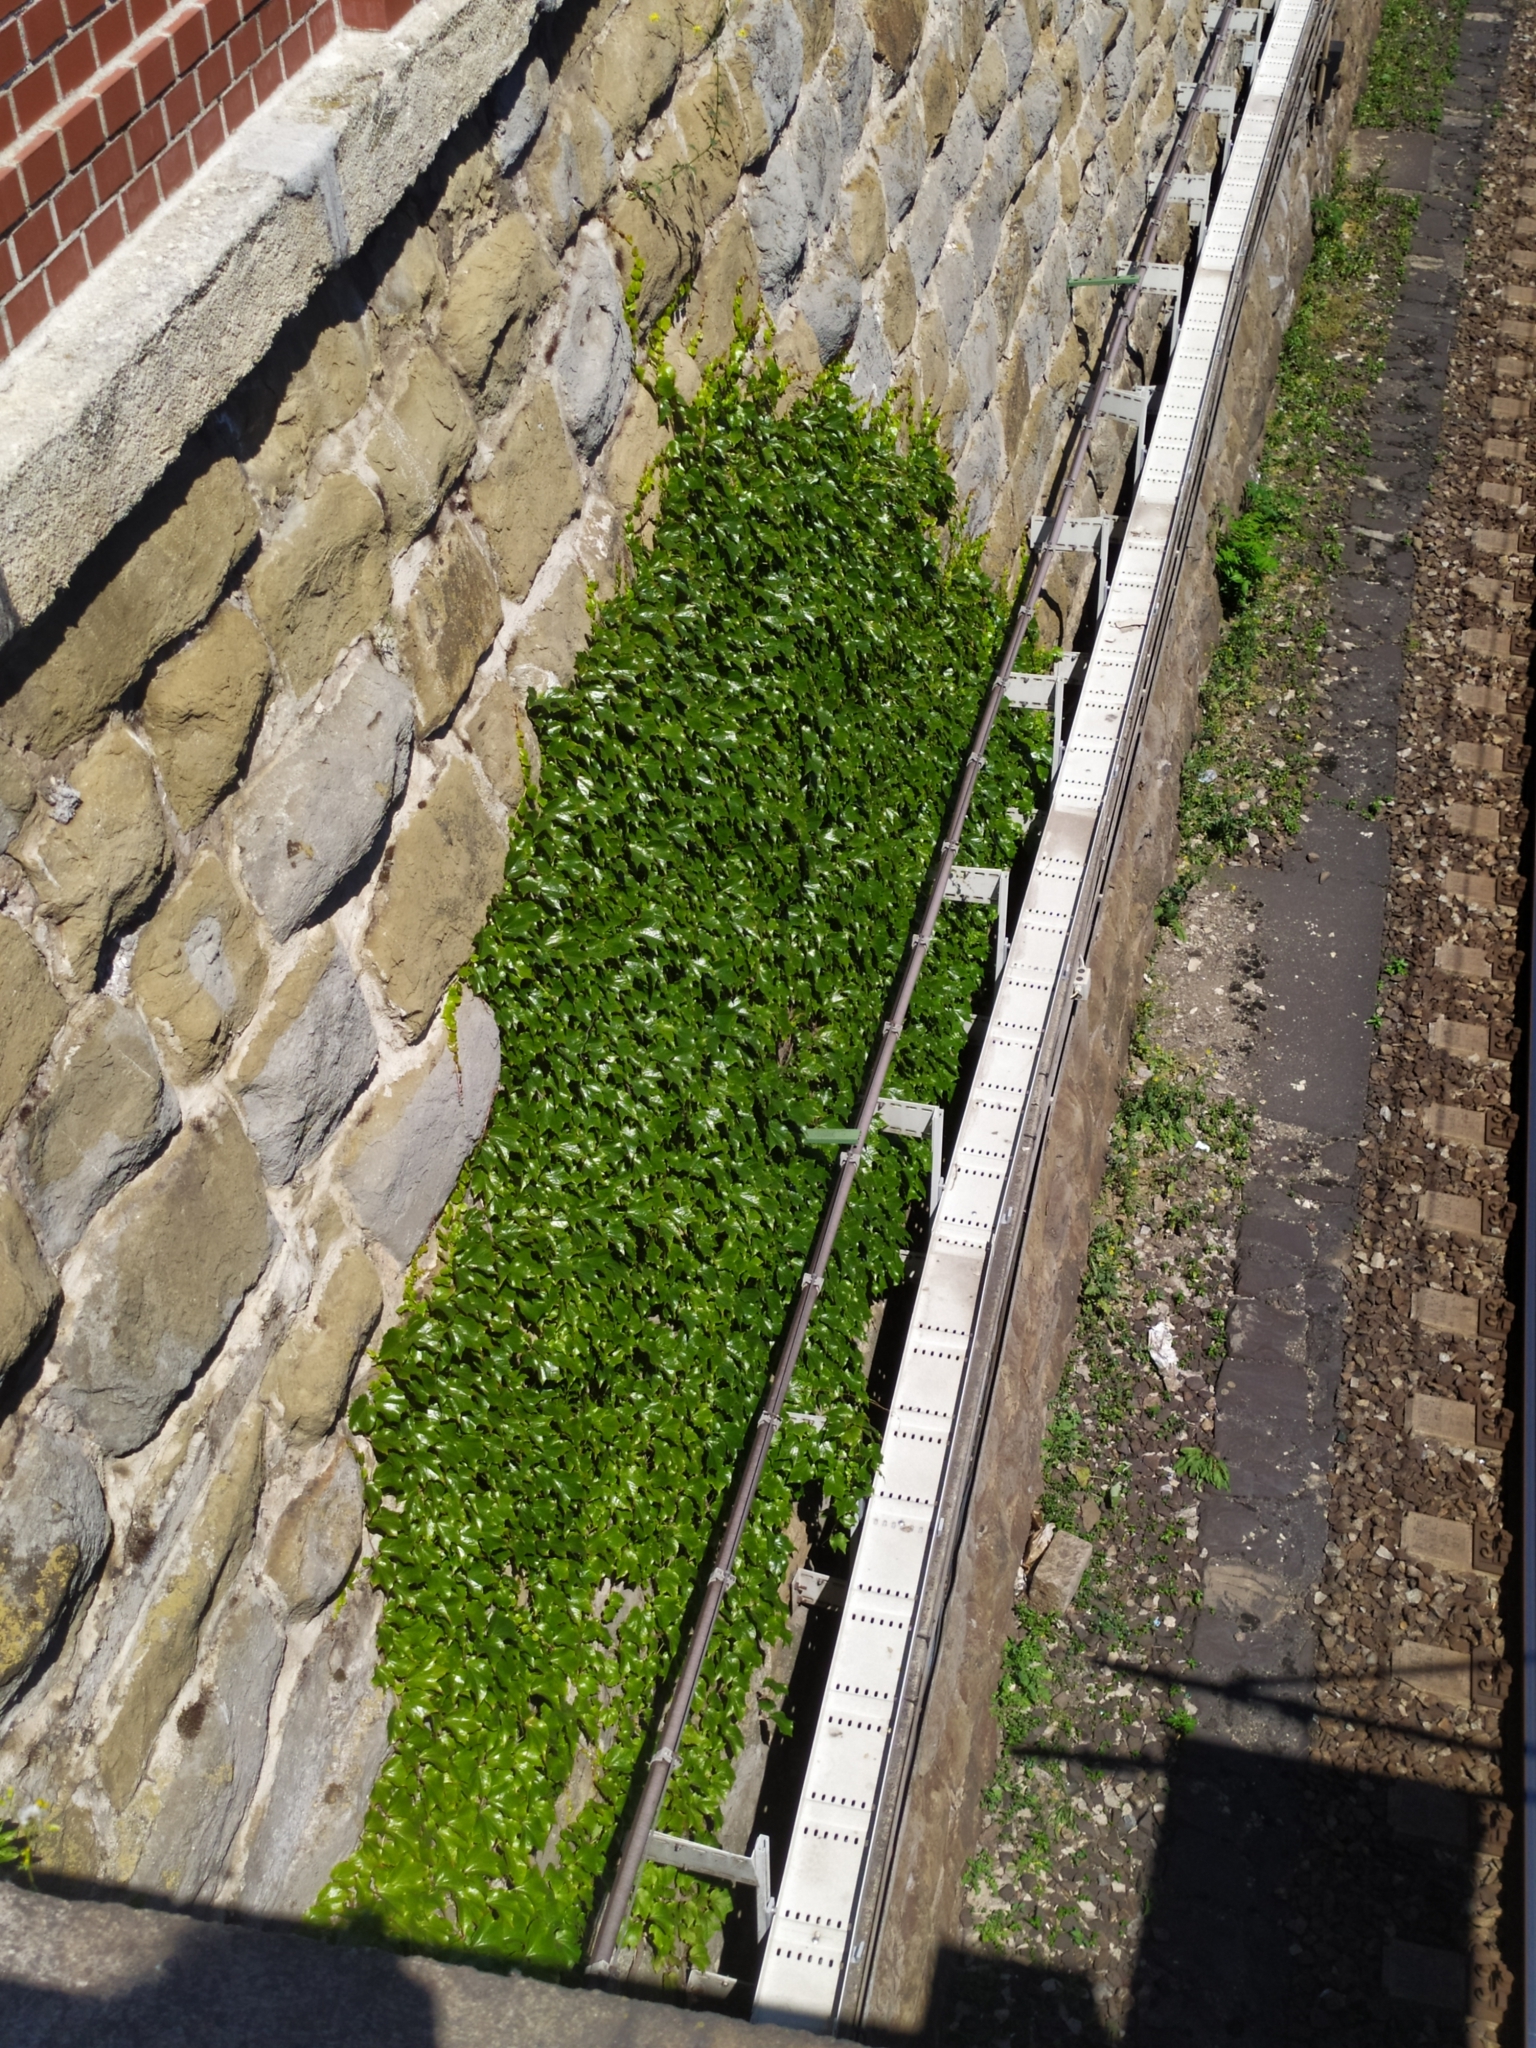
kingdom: Plantae
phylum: Tracheophyta
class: Magnoliopsida
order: Vitales
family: Vitaceae
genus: Parthenocissus
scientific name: Parthenocissus tricuspidata
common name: Boston ivy
